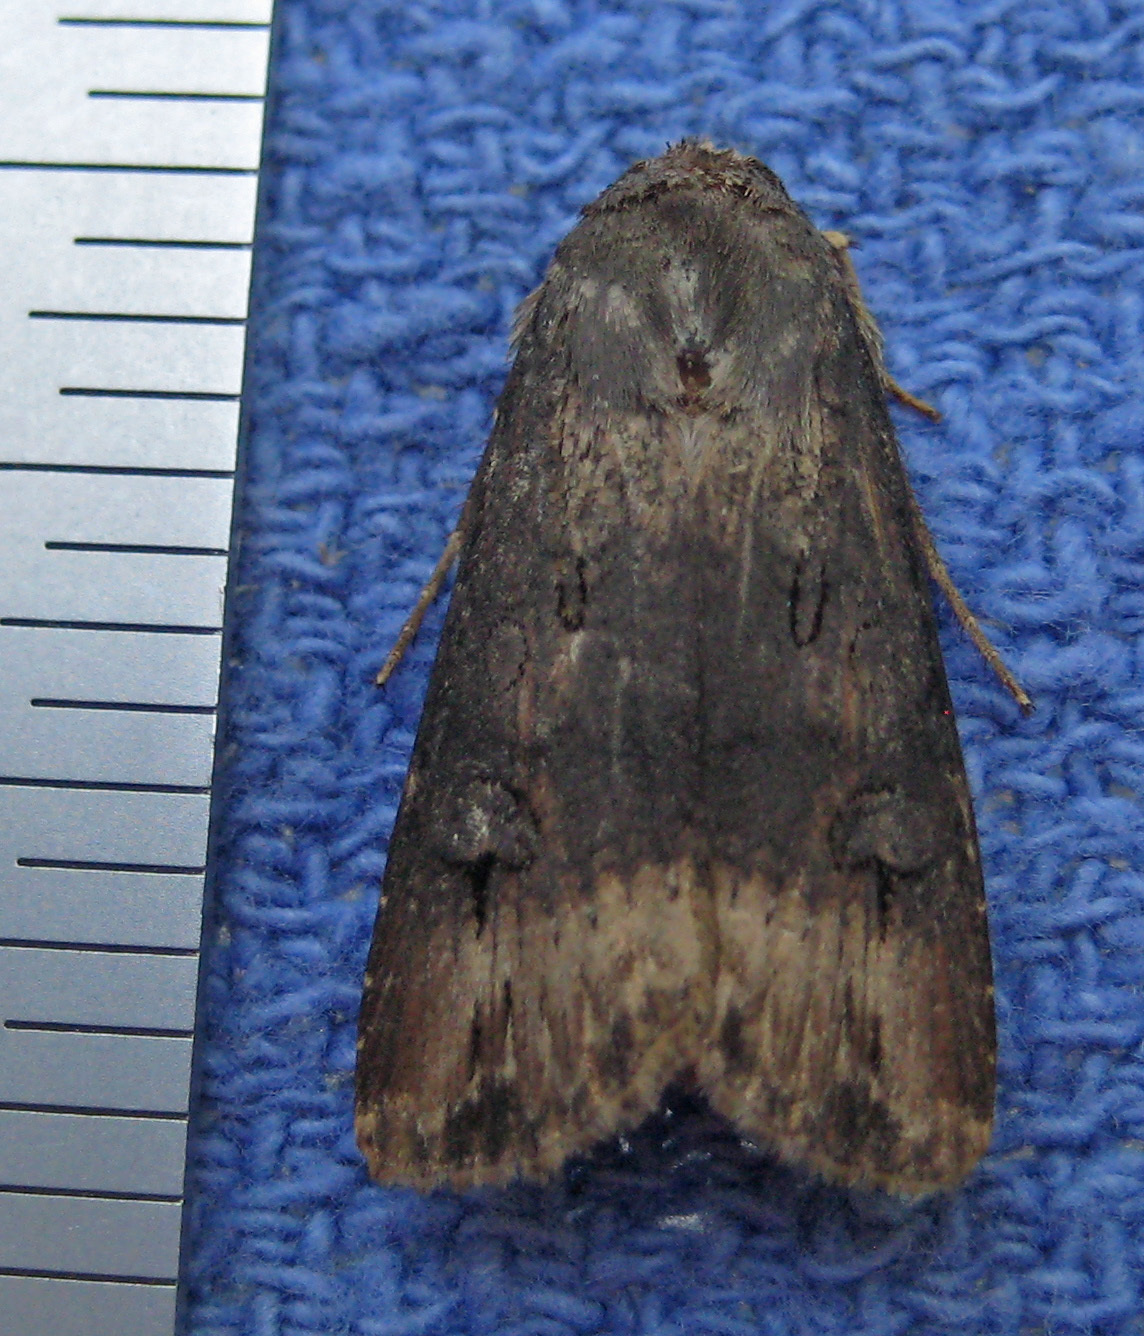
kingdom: Animalia
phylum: Arthropoda
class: Insecta
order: Lepidoptera
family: Noctuidae
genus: Agrotis
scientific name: Agrotis ipsilon
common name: Dark sword-grass
